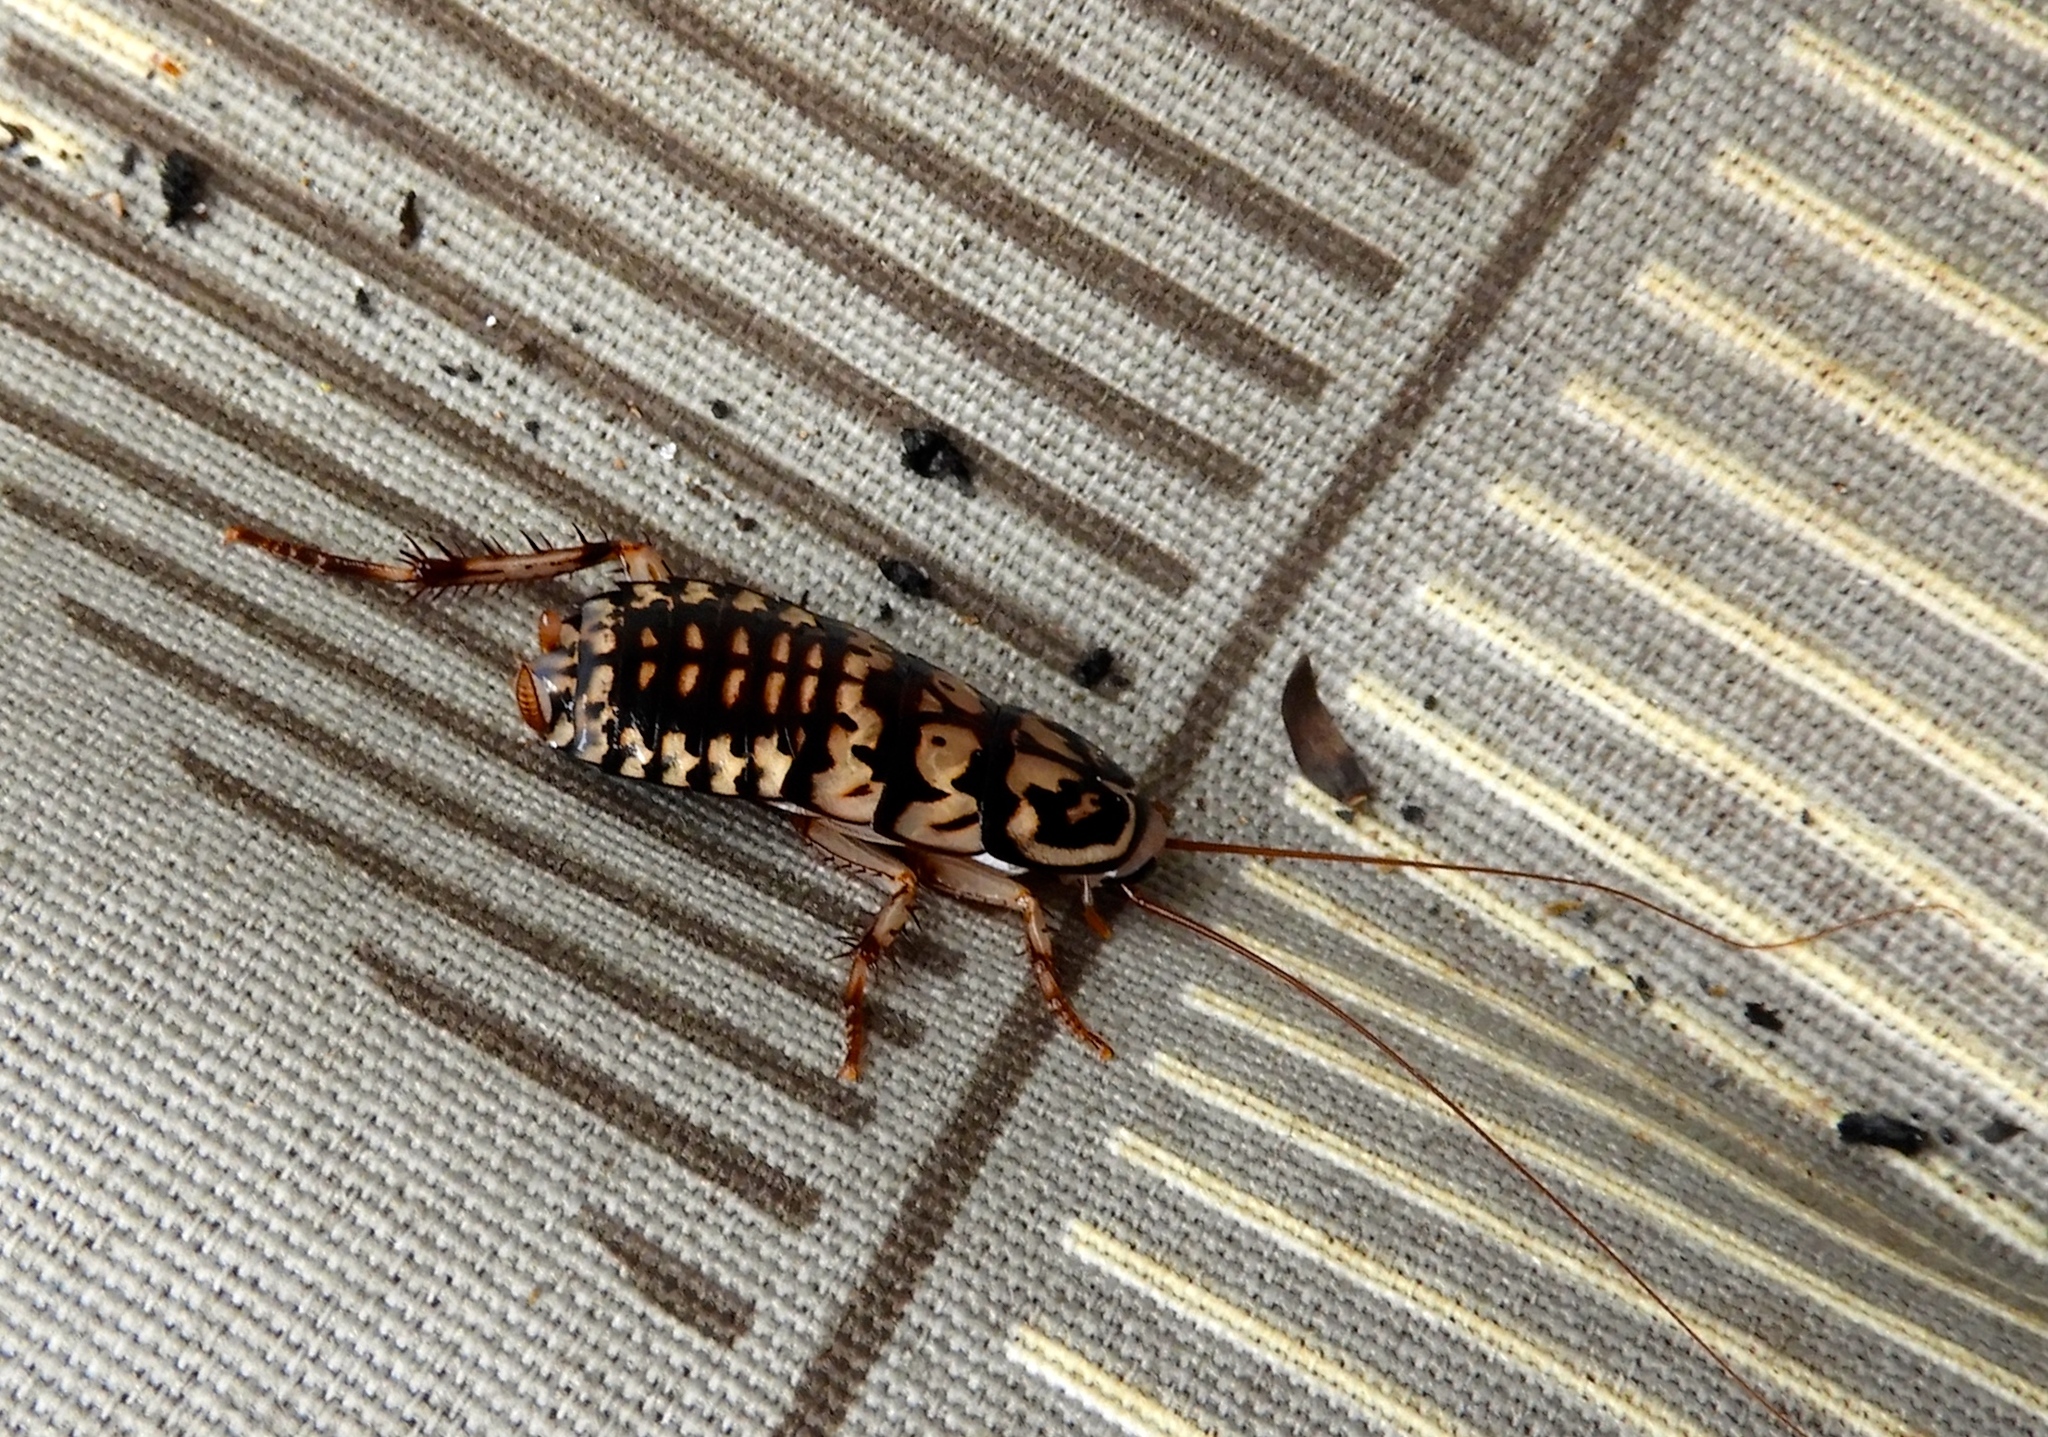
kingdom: Animalia
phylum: Arthropoda
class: Insecta
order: Blattodea
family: Blattidae
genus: Neostylopyga
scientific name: Neostylopyga rhombifolia
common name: Harlequin cockroach
